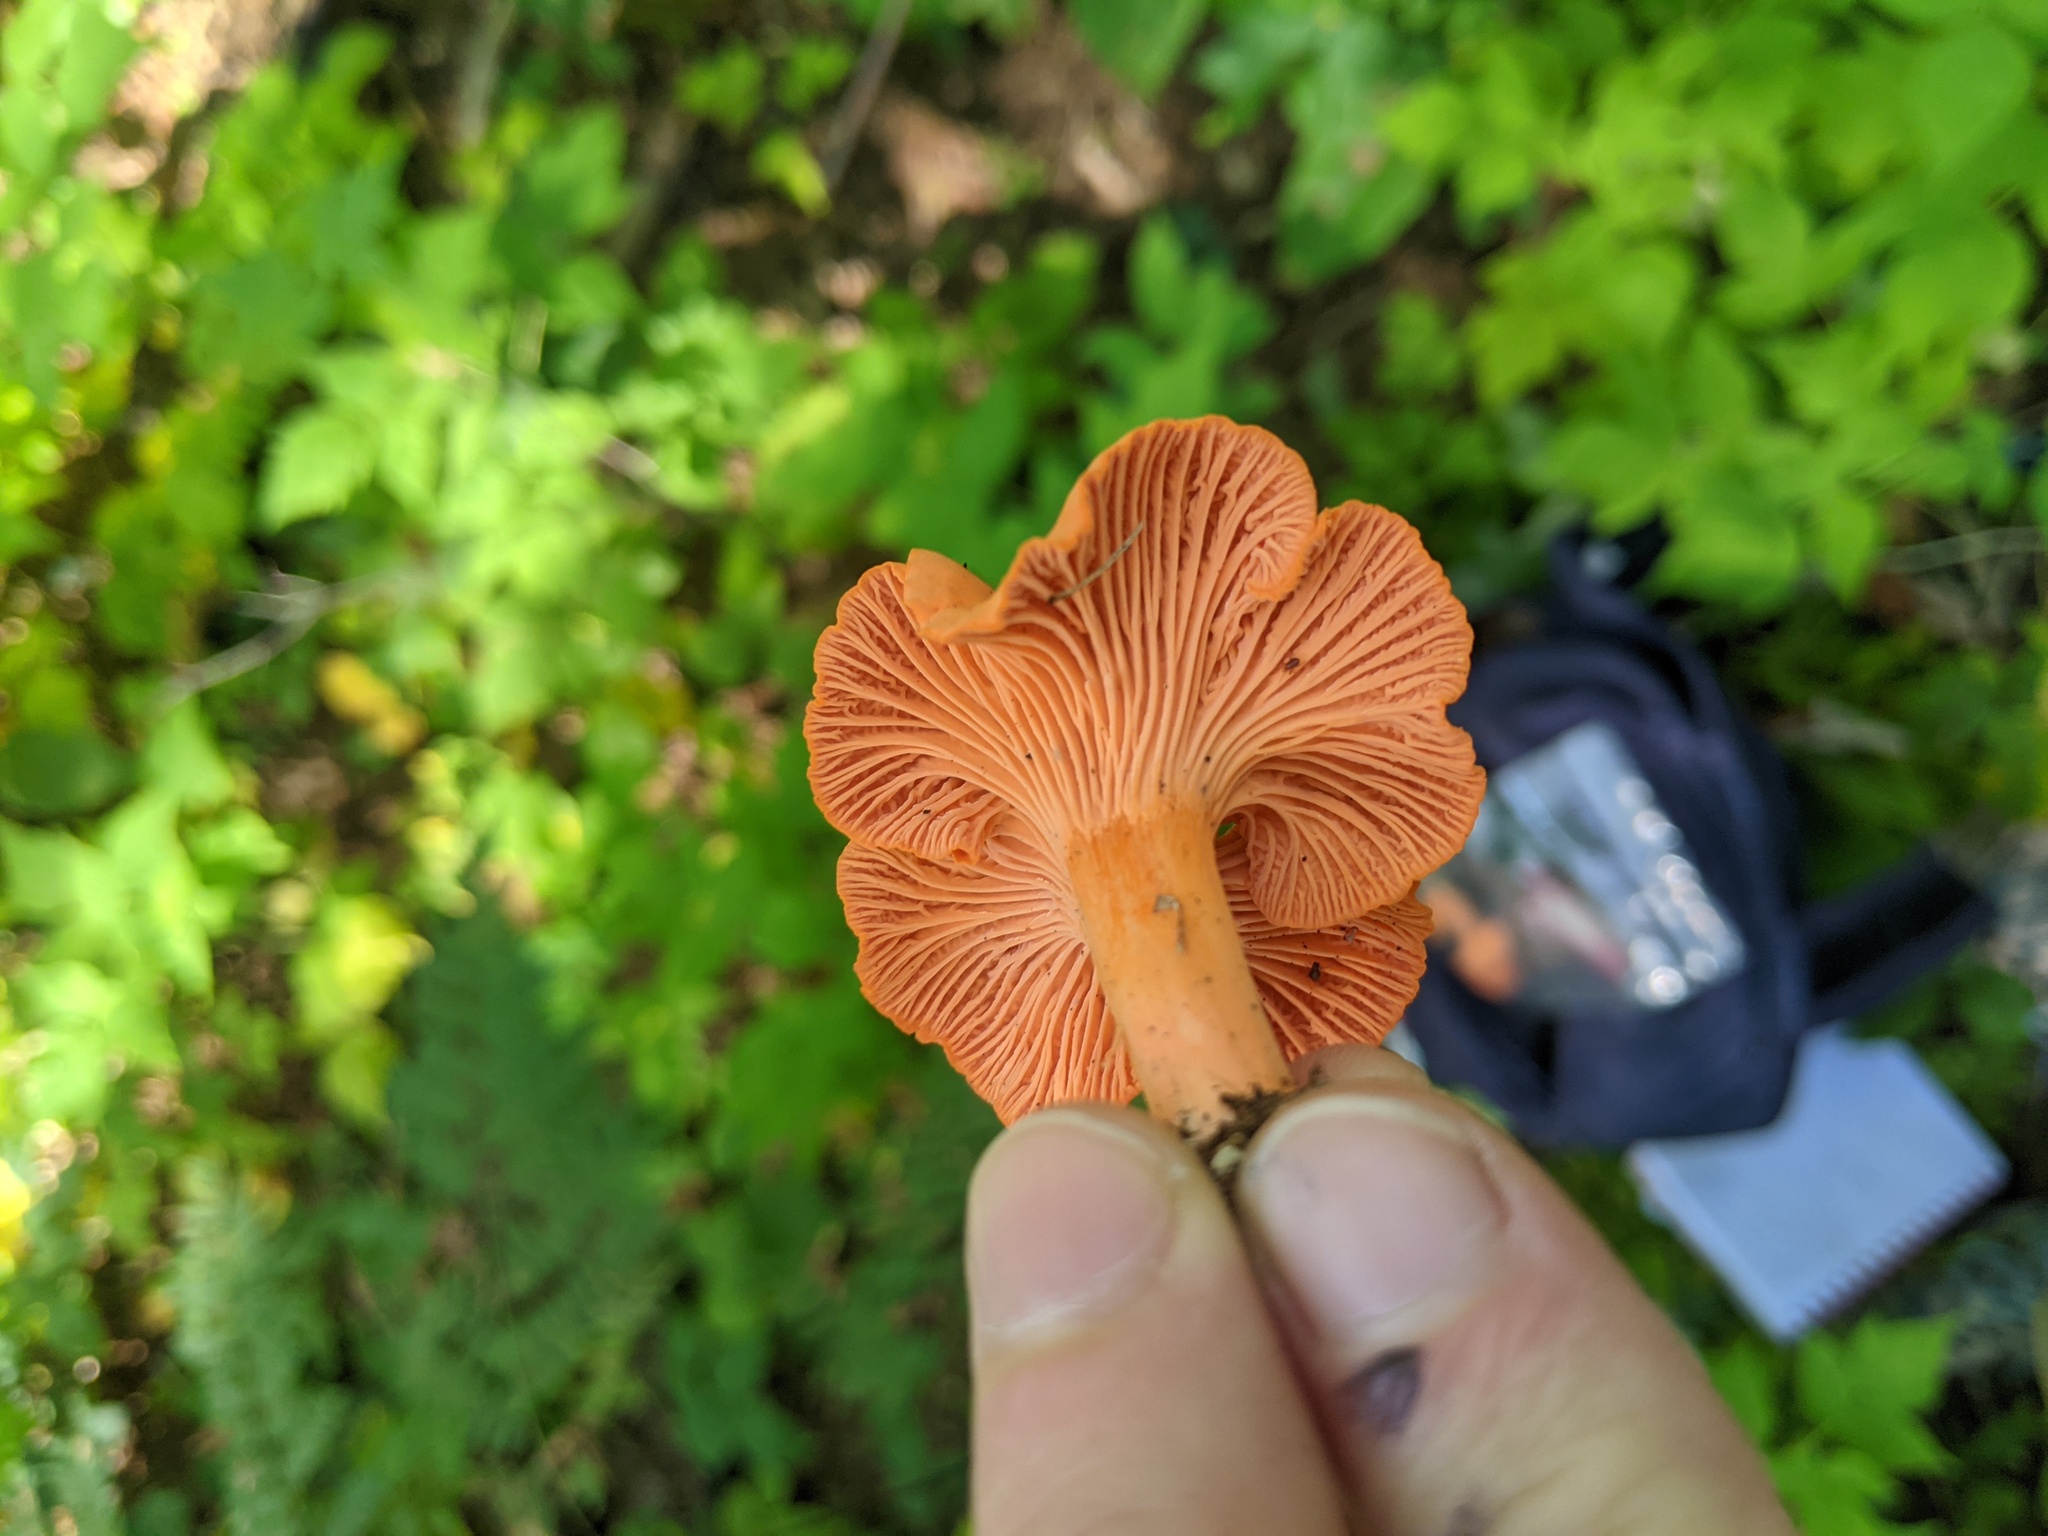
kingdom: Fungi
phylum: Basidiomycota
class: Agaricomycetes
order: Cantharellales
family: Hydnaceae
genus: Cantharellus
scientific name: Cantharellus cinnabarinus
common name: Cinnabar chanterelle
